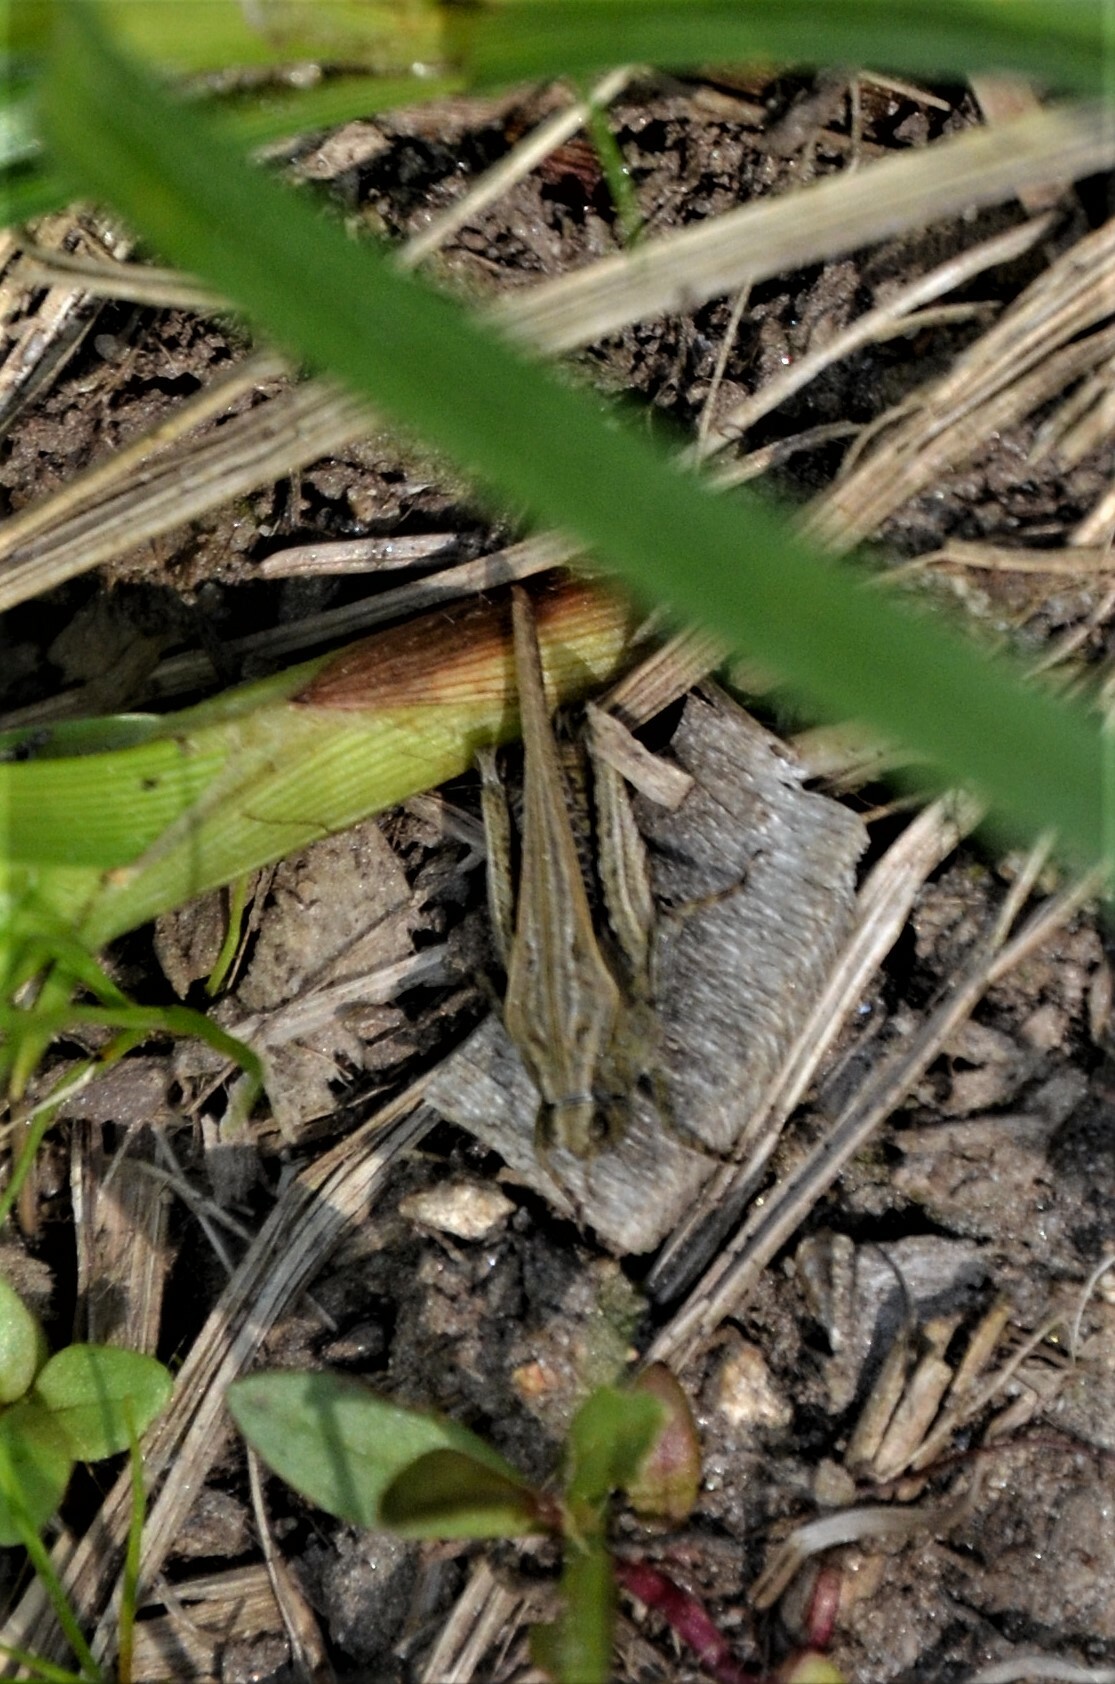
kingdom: Animalia
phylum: Arthropoda
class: Insecta
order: Orthoptera
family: Tetrigidae
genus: Tetrix
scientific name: Tetrix subulata
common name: Slender ground-hopper
